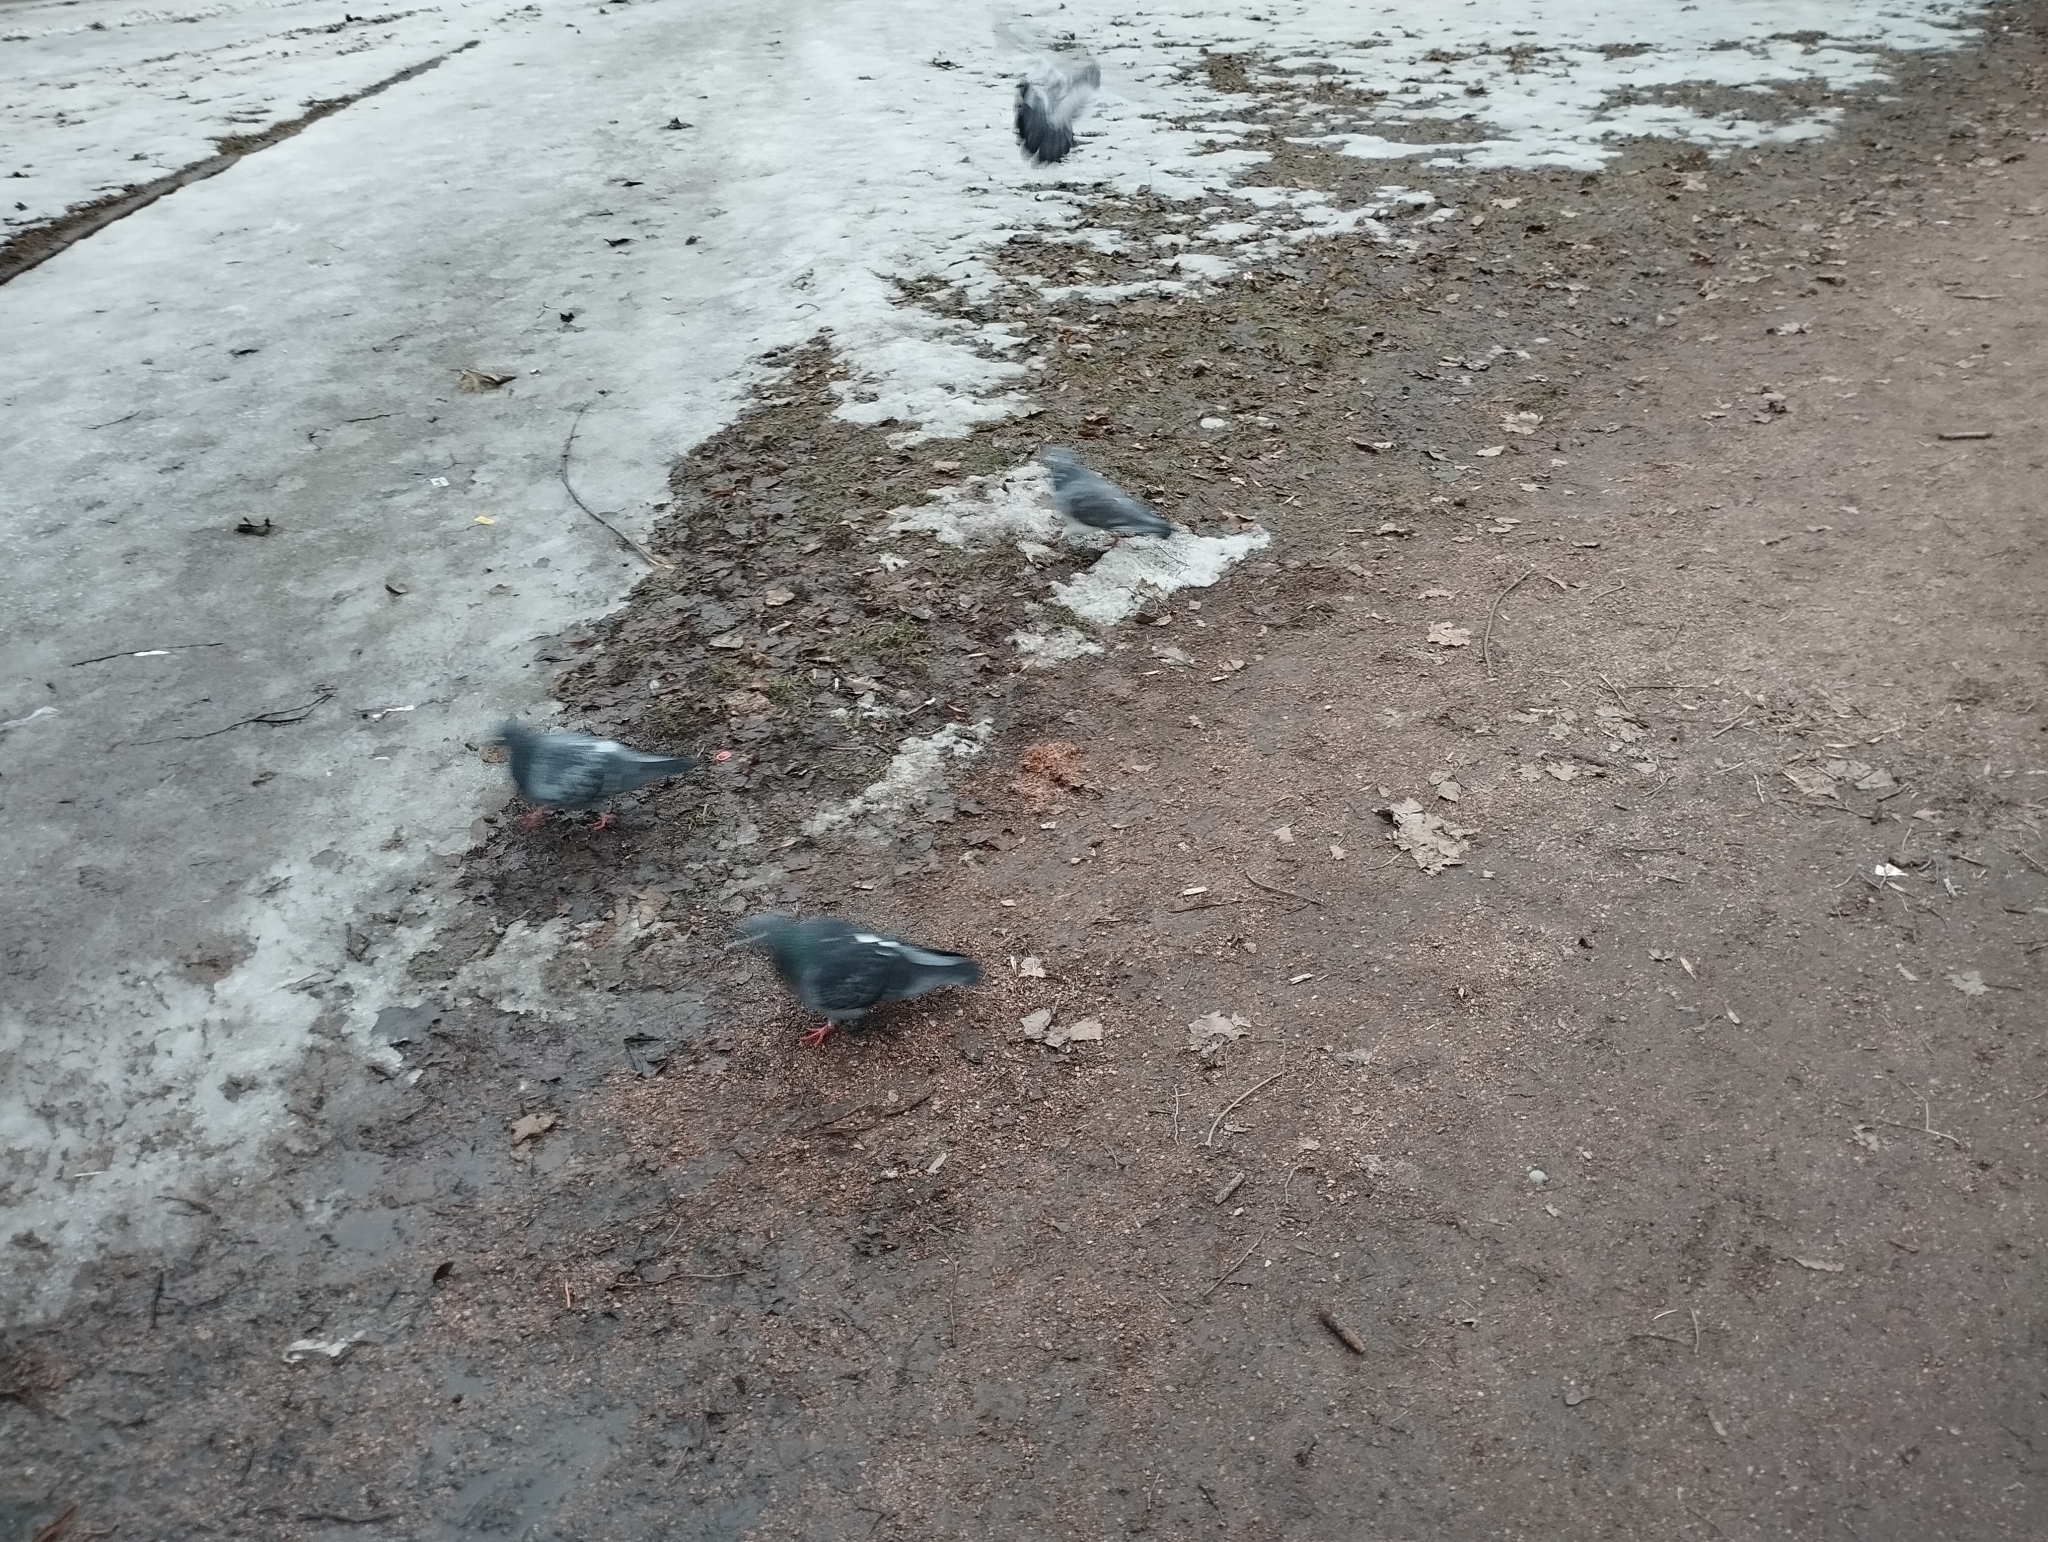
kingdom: Animalia
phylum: Chordata
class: Aves
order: Columbiformes
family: Columbidae
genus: Columba
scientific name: Columba livia
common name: Rock pigeon
